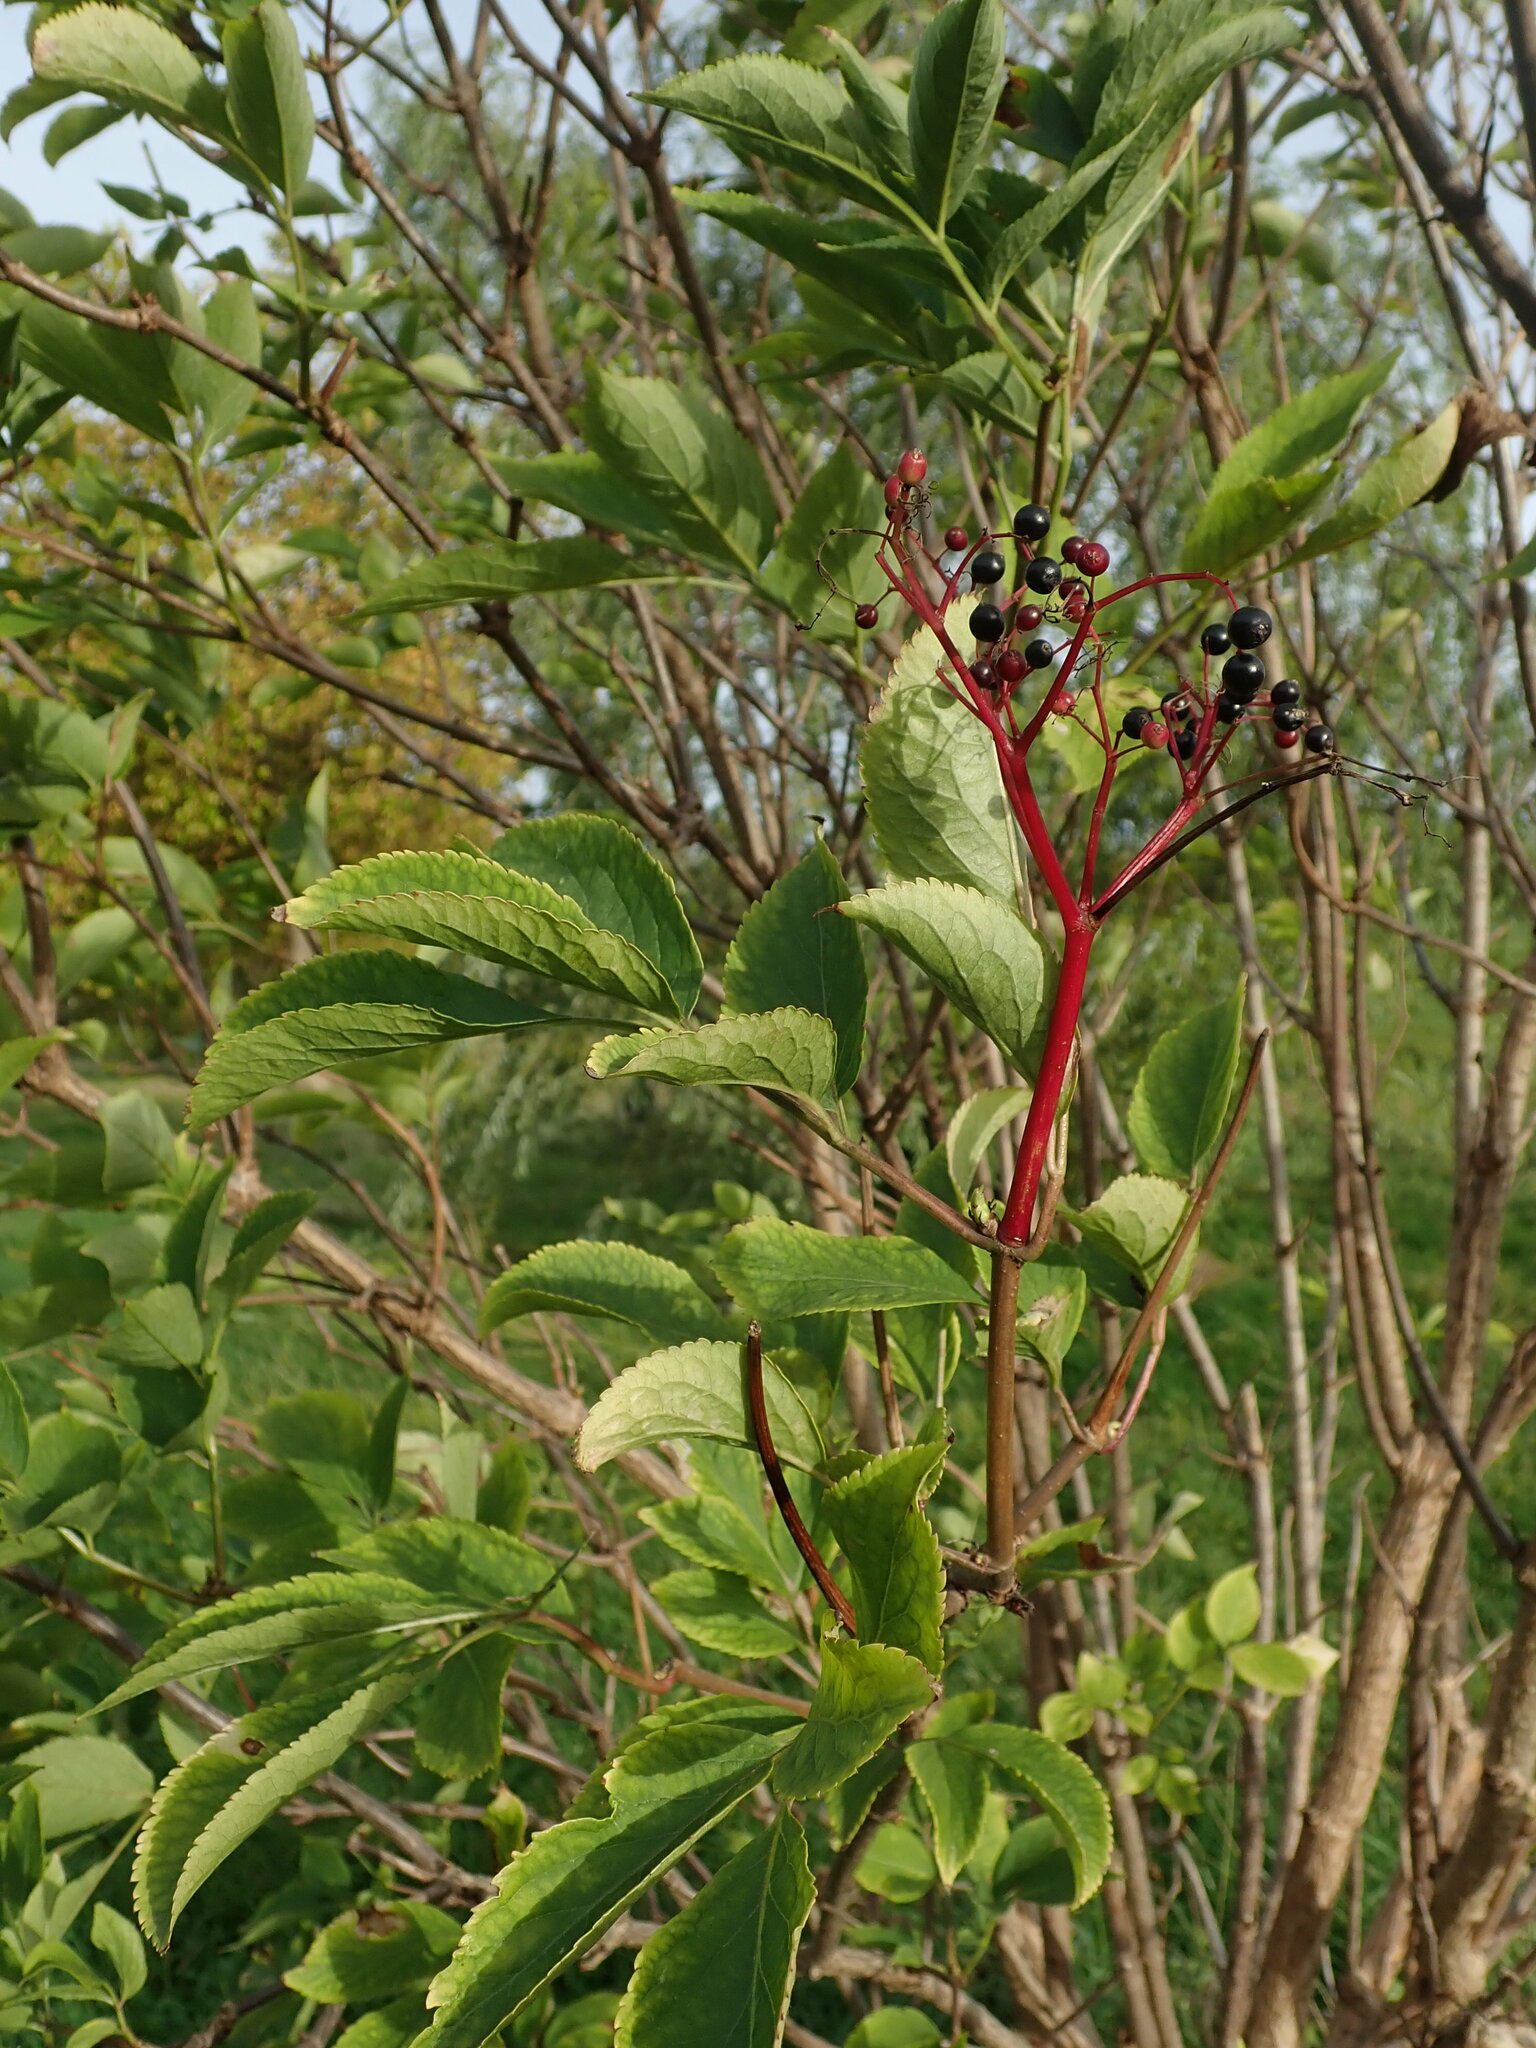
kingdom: Plantae
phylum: Tracheophyta
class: Magnoliopsida
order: Dipsacales
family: Viburnaceae
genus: Sambucus
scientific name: Sambucus nigra
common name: Elder
